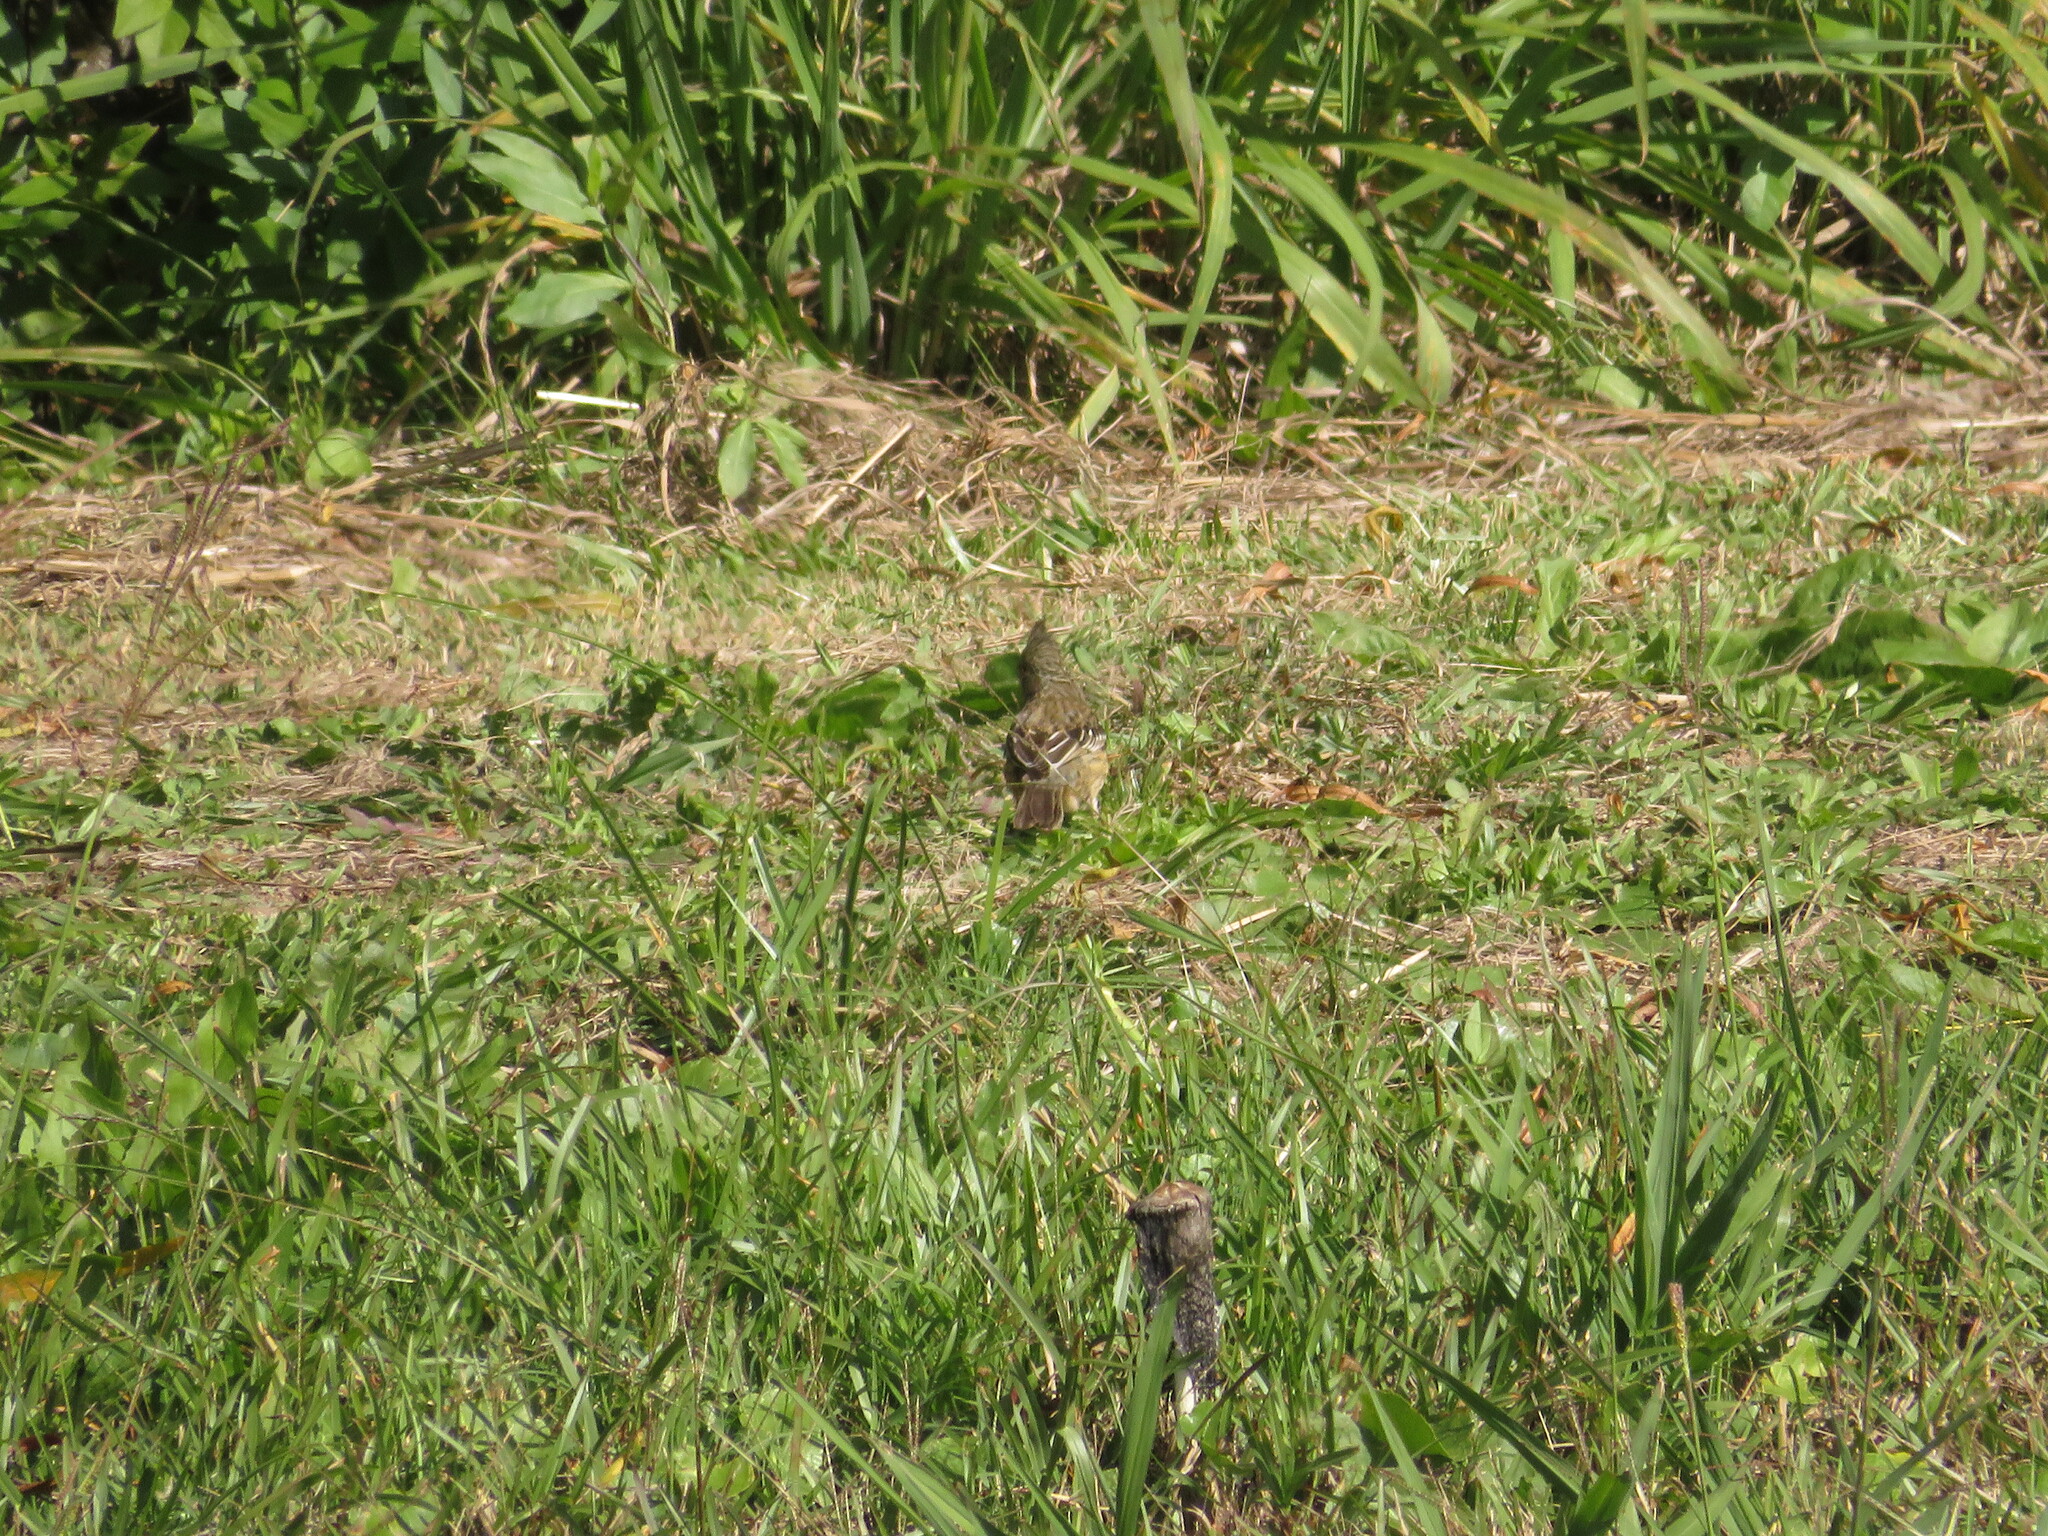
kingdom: Animalia
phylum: Chordata
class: Aves
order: Passeriformes
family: Cotingidae
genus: Phytotoma
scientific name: Phytotoma rutila
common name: White-tipped plantcutter
